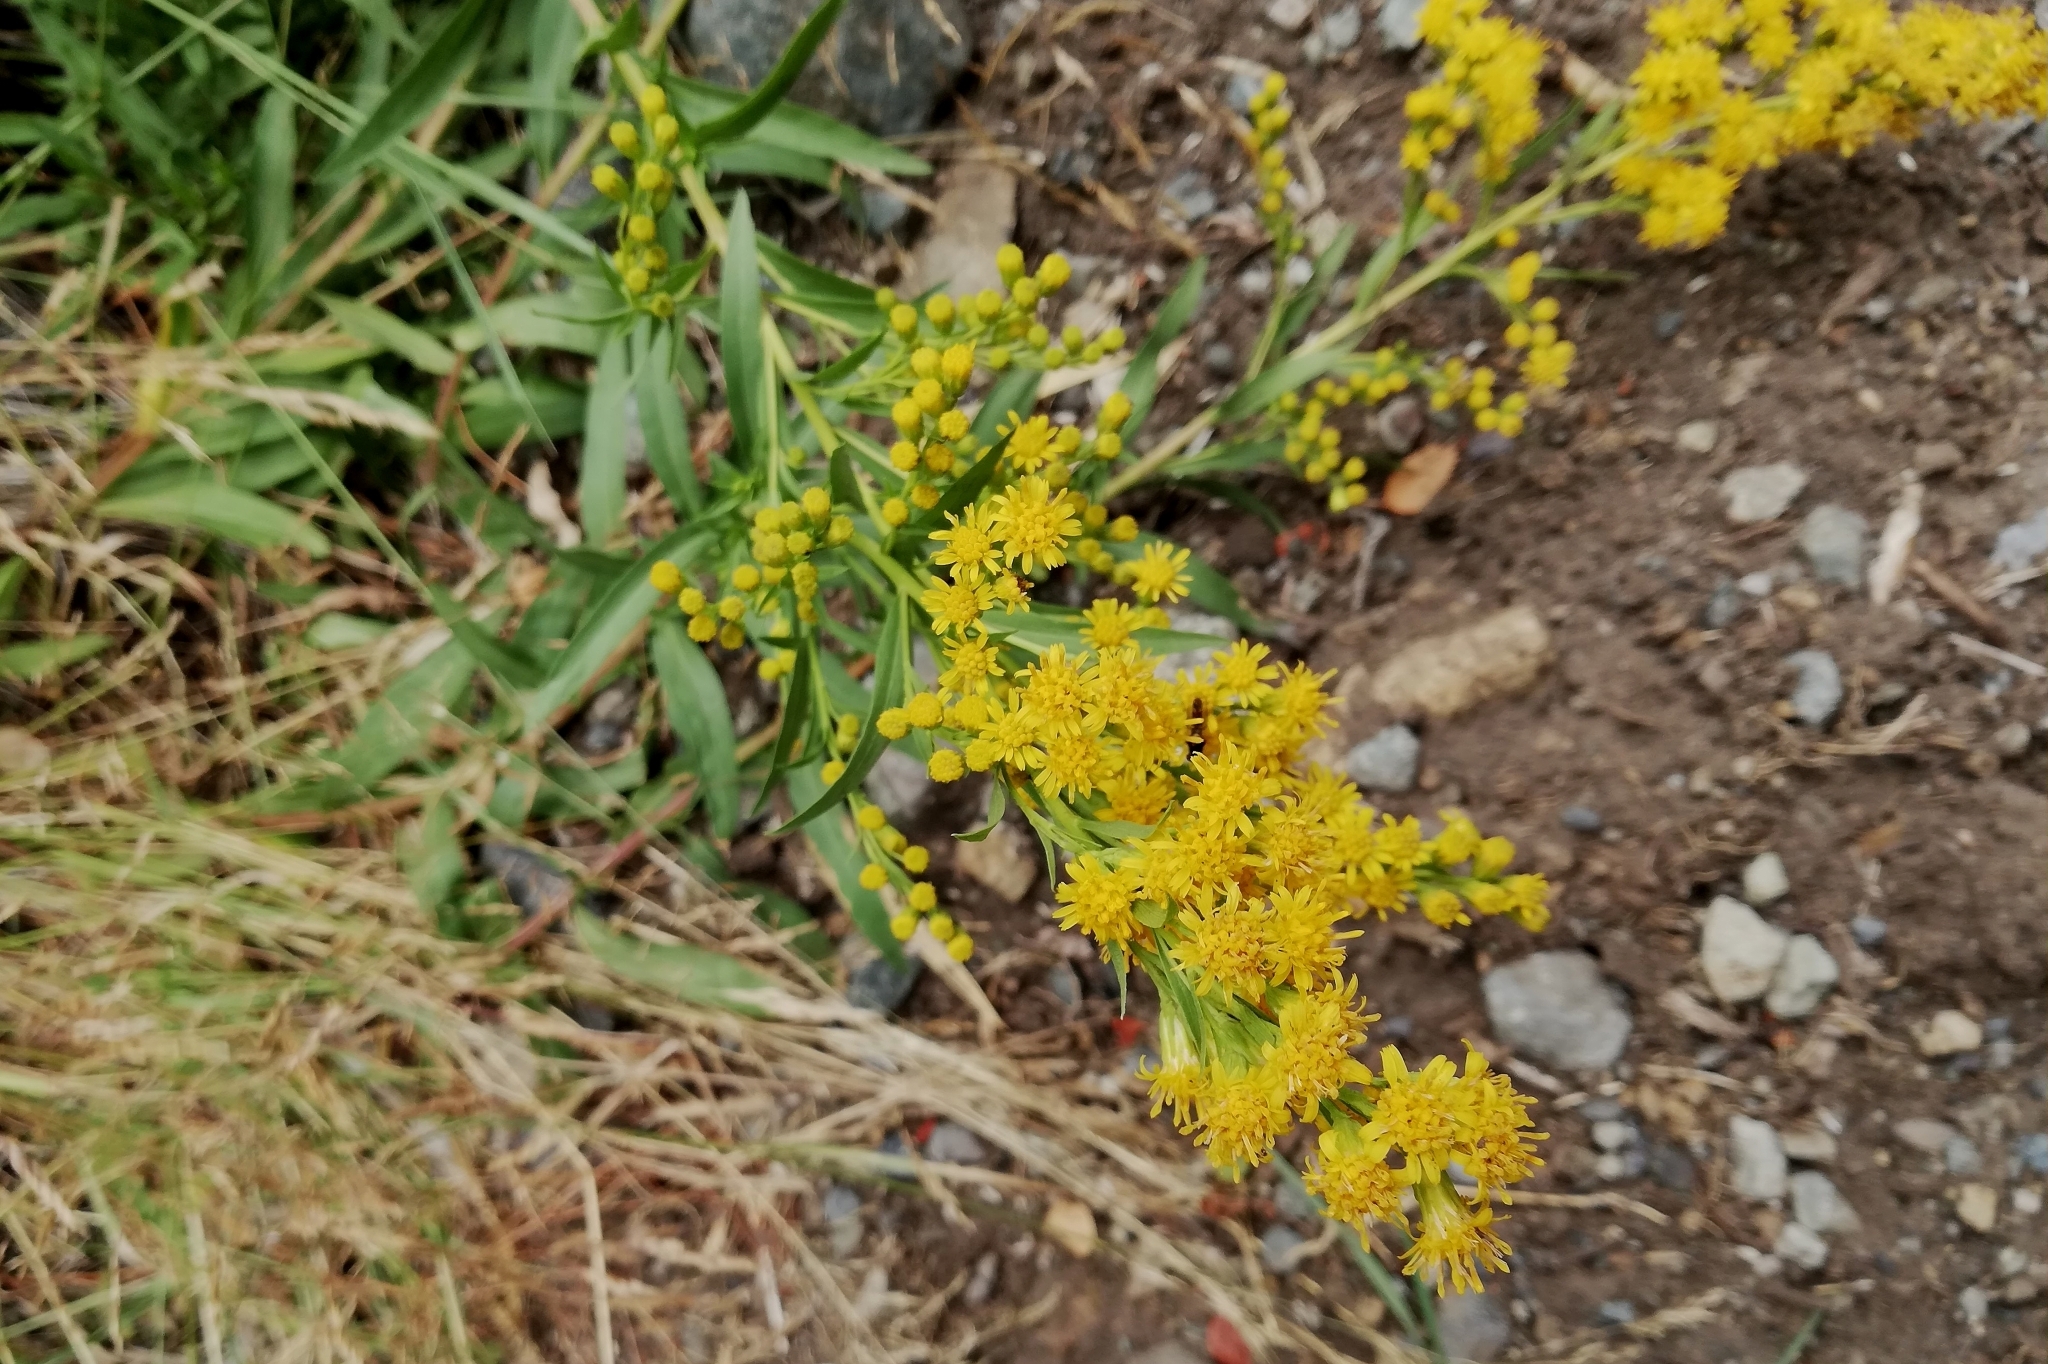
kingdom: Plantae
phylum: Tracheophyta
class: Magnoliopsida
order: Asterales
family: Asteraceae
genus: Solidago
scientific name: Solidago chilensis
